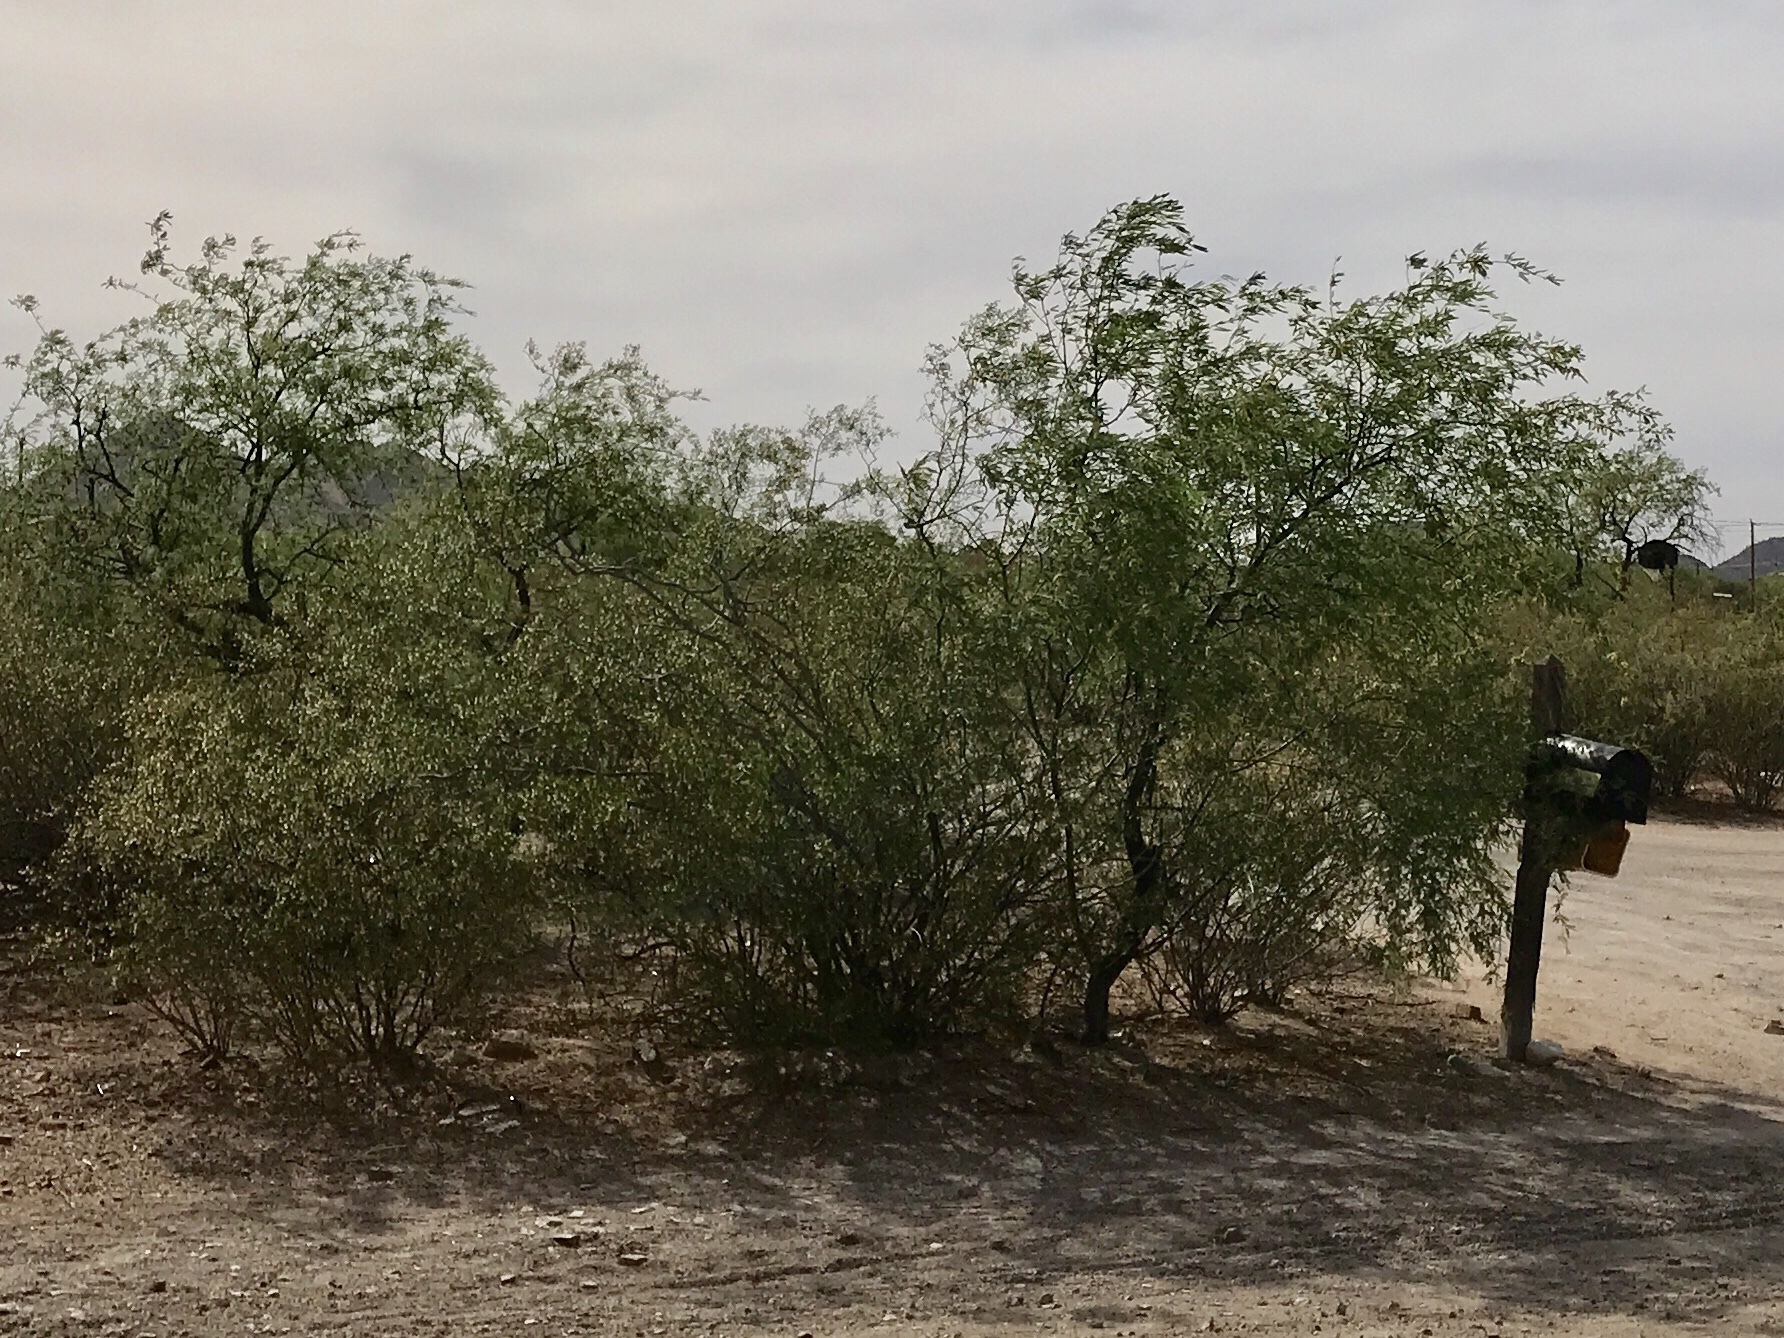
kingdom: Plantae
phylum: Tracheophyta
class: Magnoliopsida
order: Fabales
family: Fabaceae
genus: Prosopis
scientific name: Prosopis velutina
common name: Velvet mesquite
